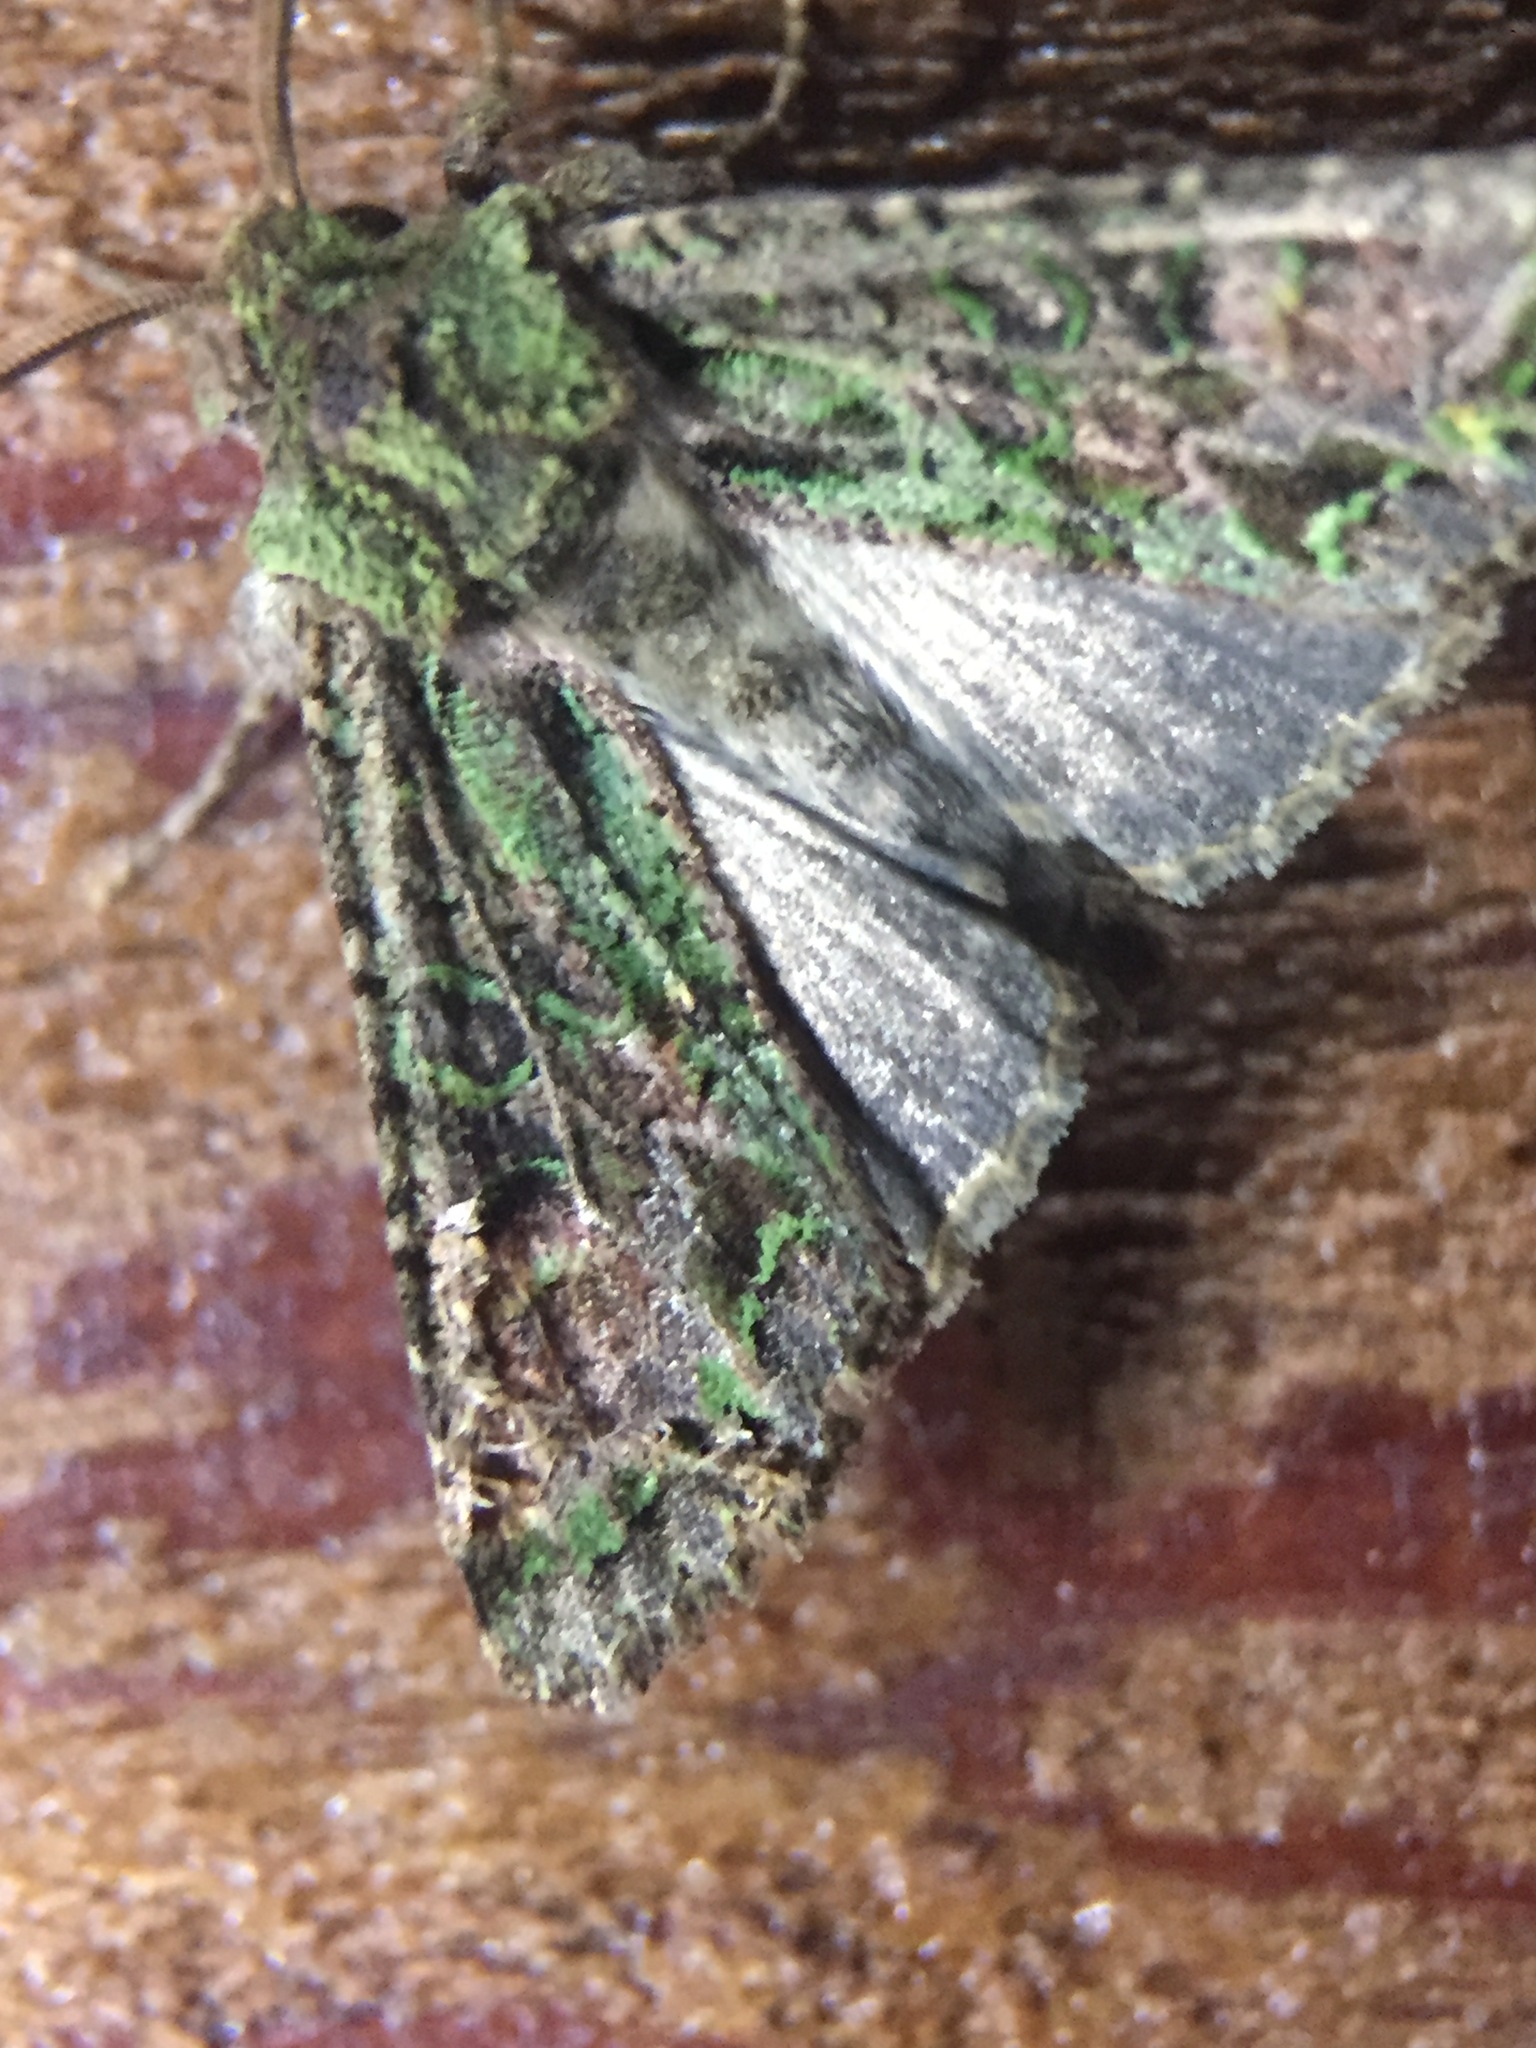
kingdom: Animalia
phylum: Arthropoda
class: Insecta
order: Lepidoptera
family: Noctuidae
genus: Ichneutica
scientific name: Ichneutica
